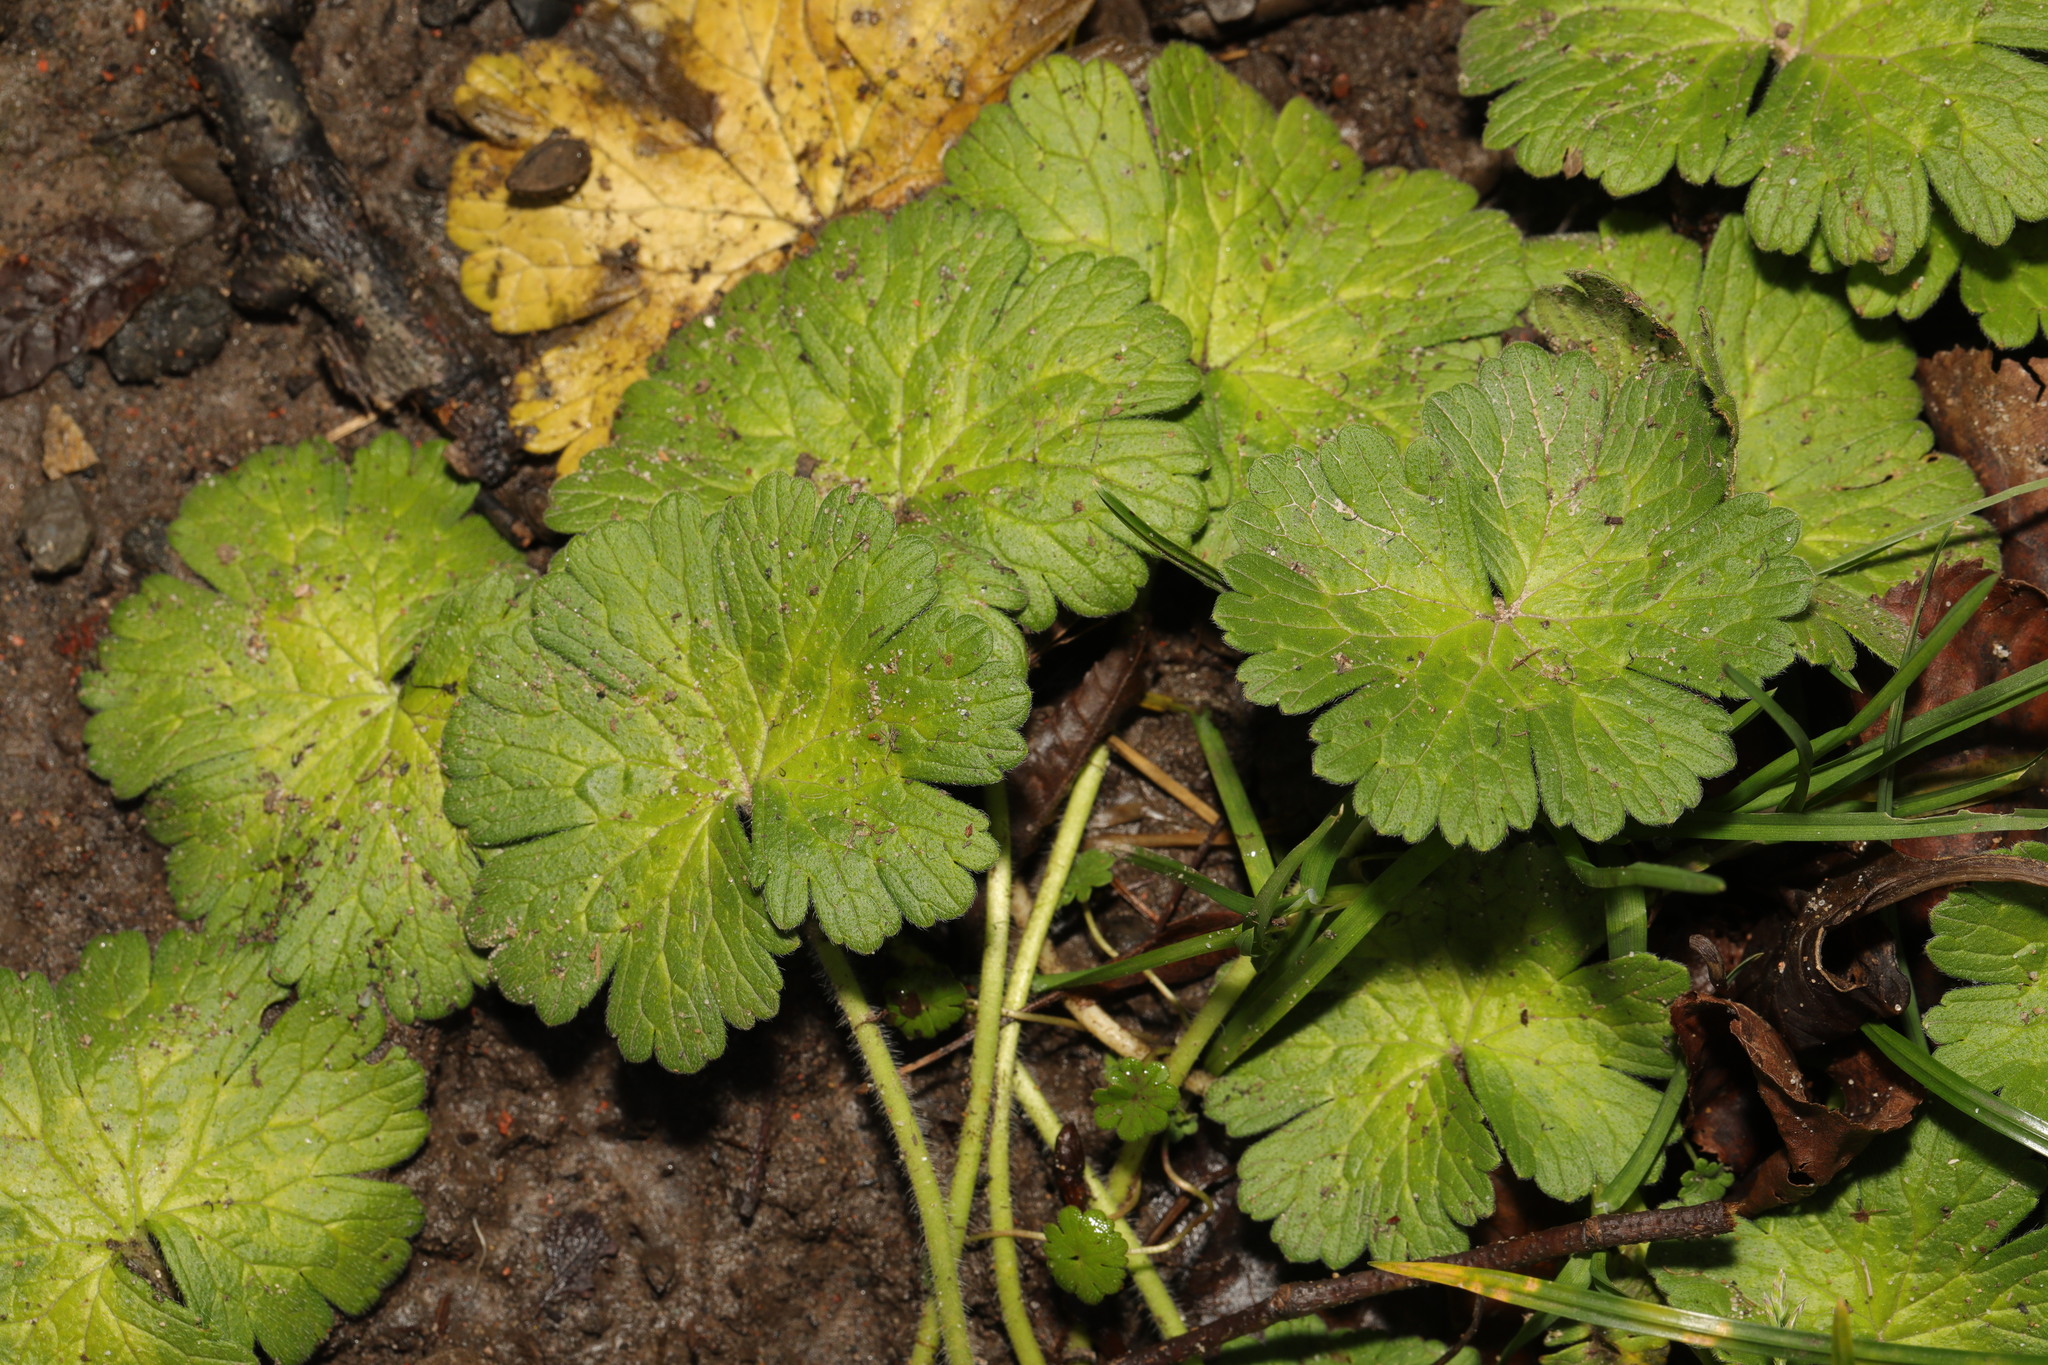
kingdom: Plantae
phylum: Tracheophyta
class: Magnoliopsida
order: Geraniales
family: Geraniaceae
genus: Geranium
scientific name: Geranium molle
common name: Dove's-foot crane's-bill
